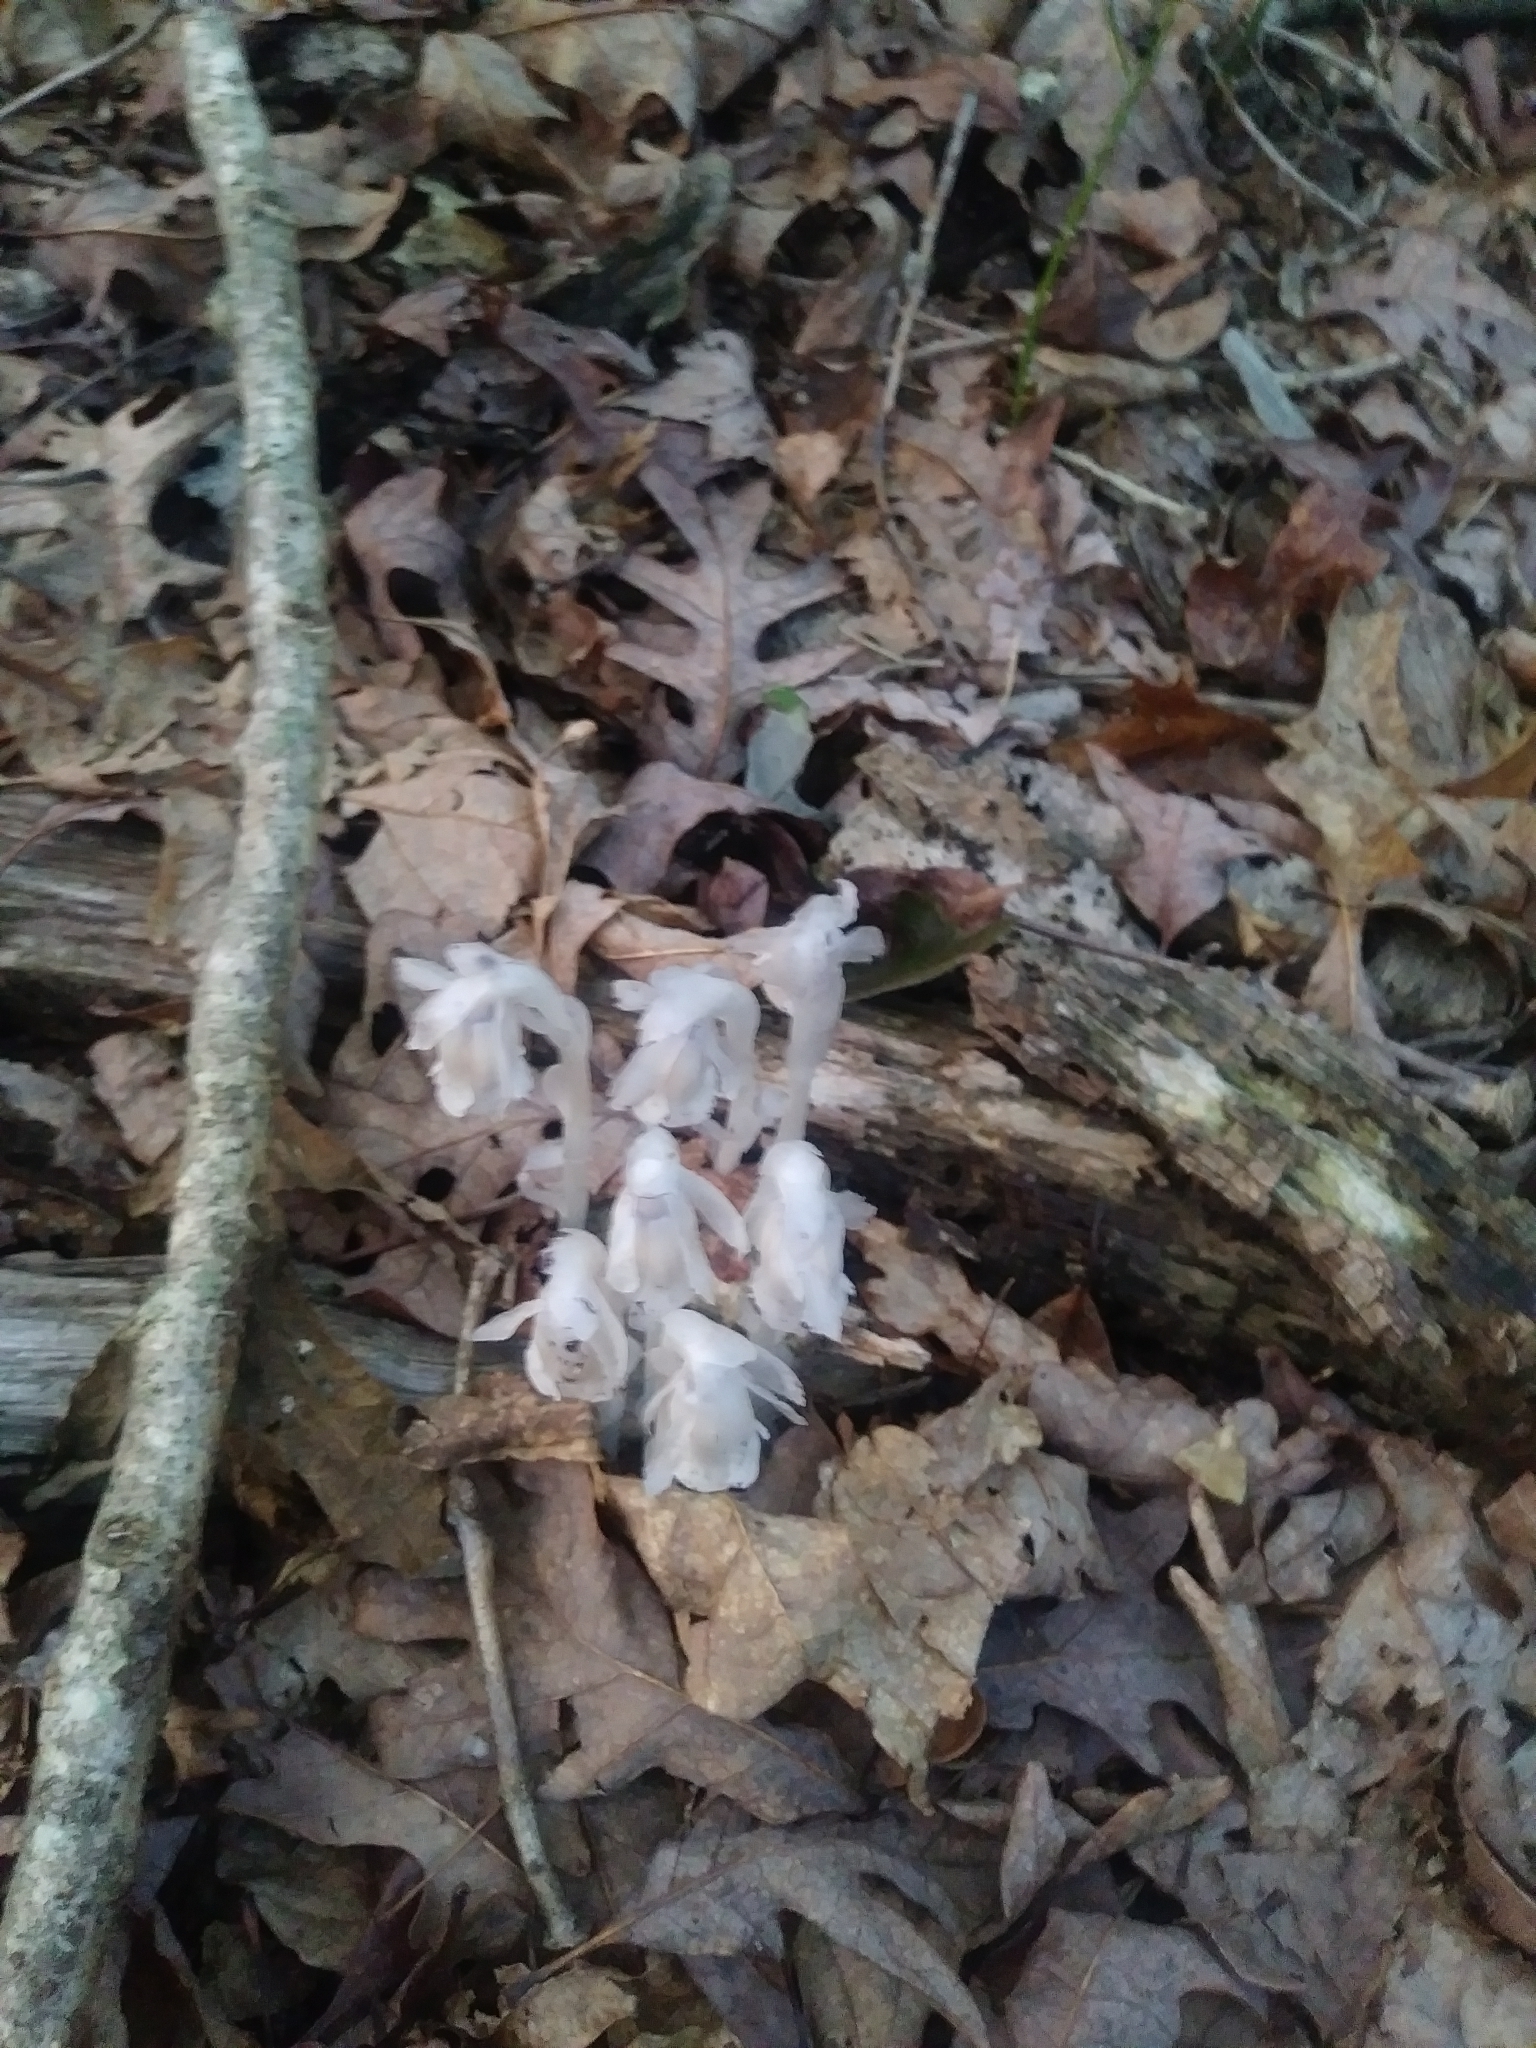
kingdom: Plantae
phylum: Tracheophyta
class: Magnoliopsida
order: Ericales
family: Ericaceae
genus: Monotropa
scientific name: Monotropa uniflora
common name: Convulsion root
